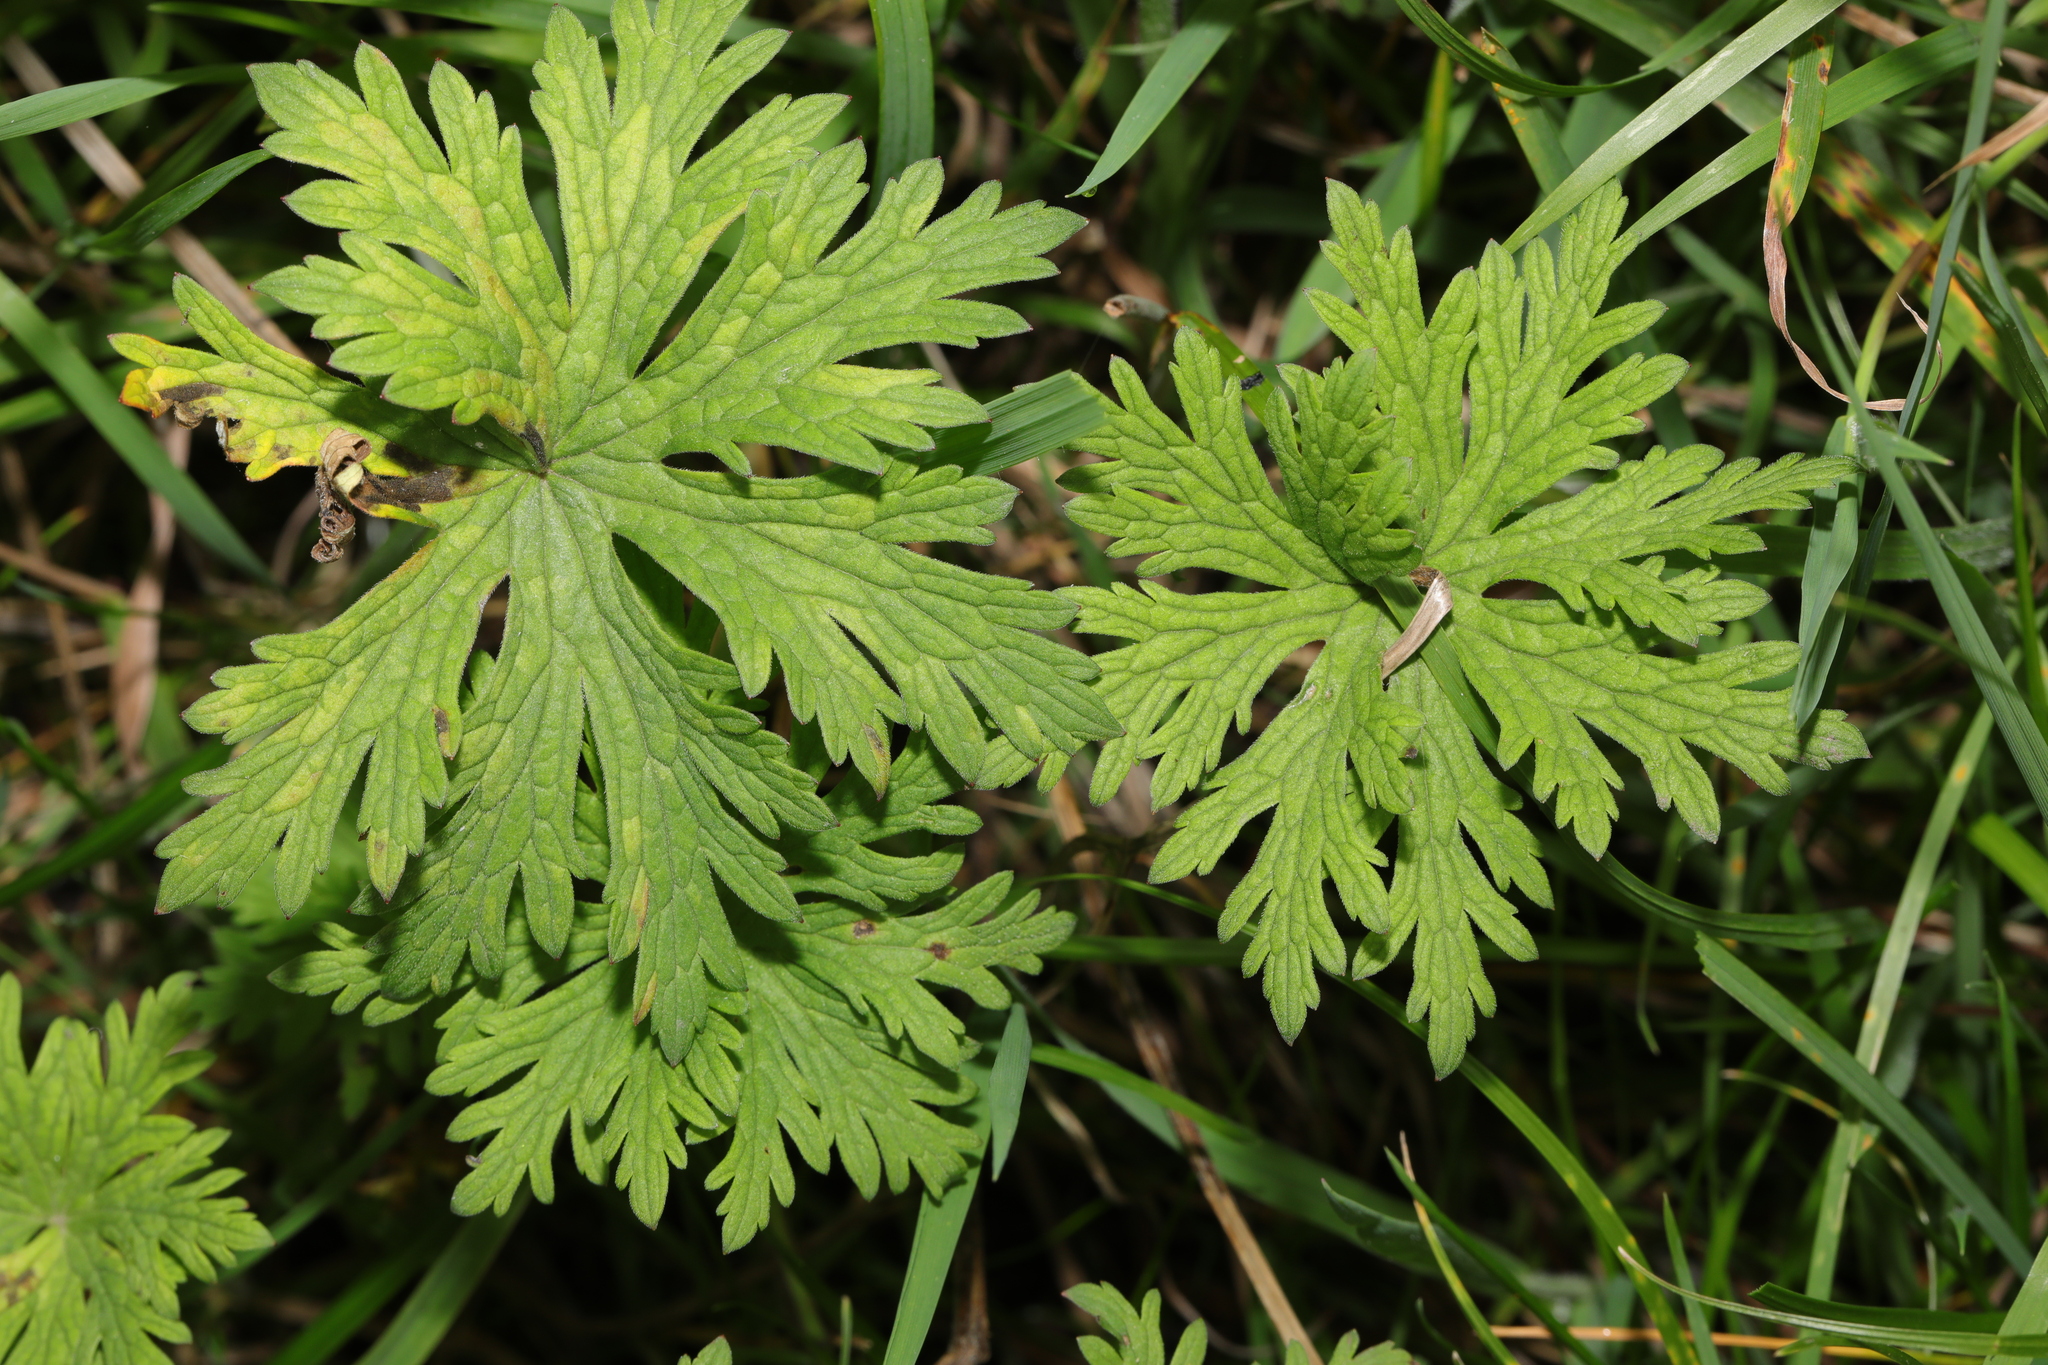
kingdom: Plantae
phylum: Tracheophyta
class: Magnoliopsida
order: Geraniales
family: Geraniaceae
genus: Geranium
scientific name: Geranium pratense
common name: Meadow crane's-bill
